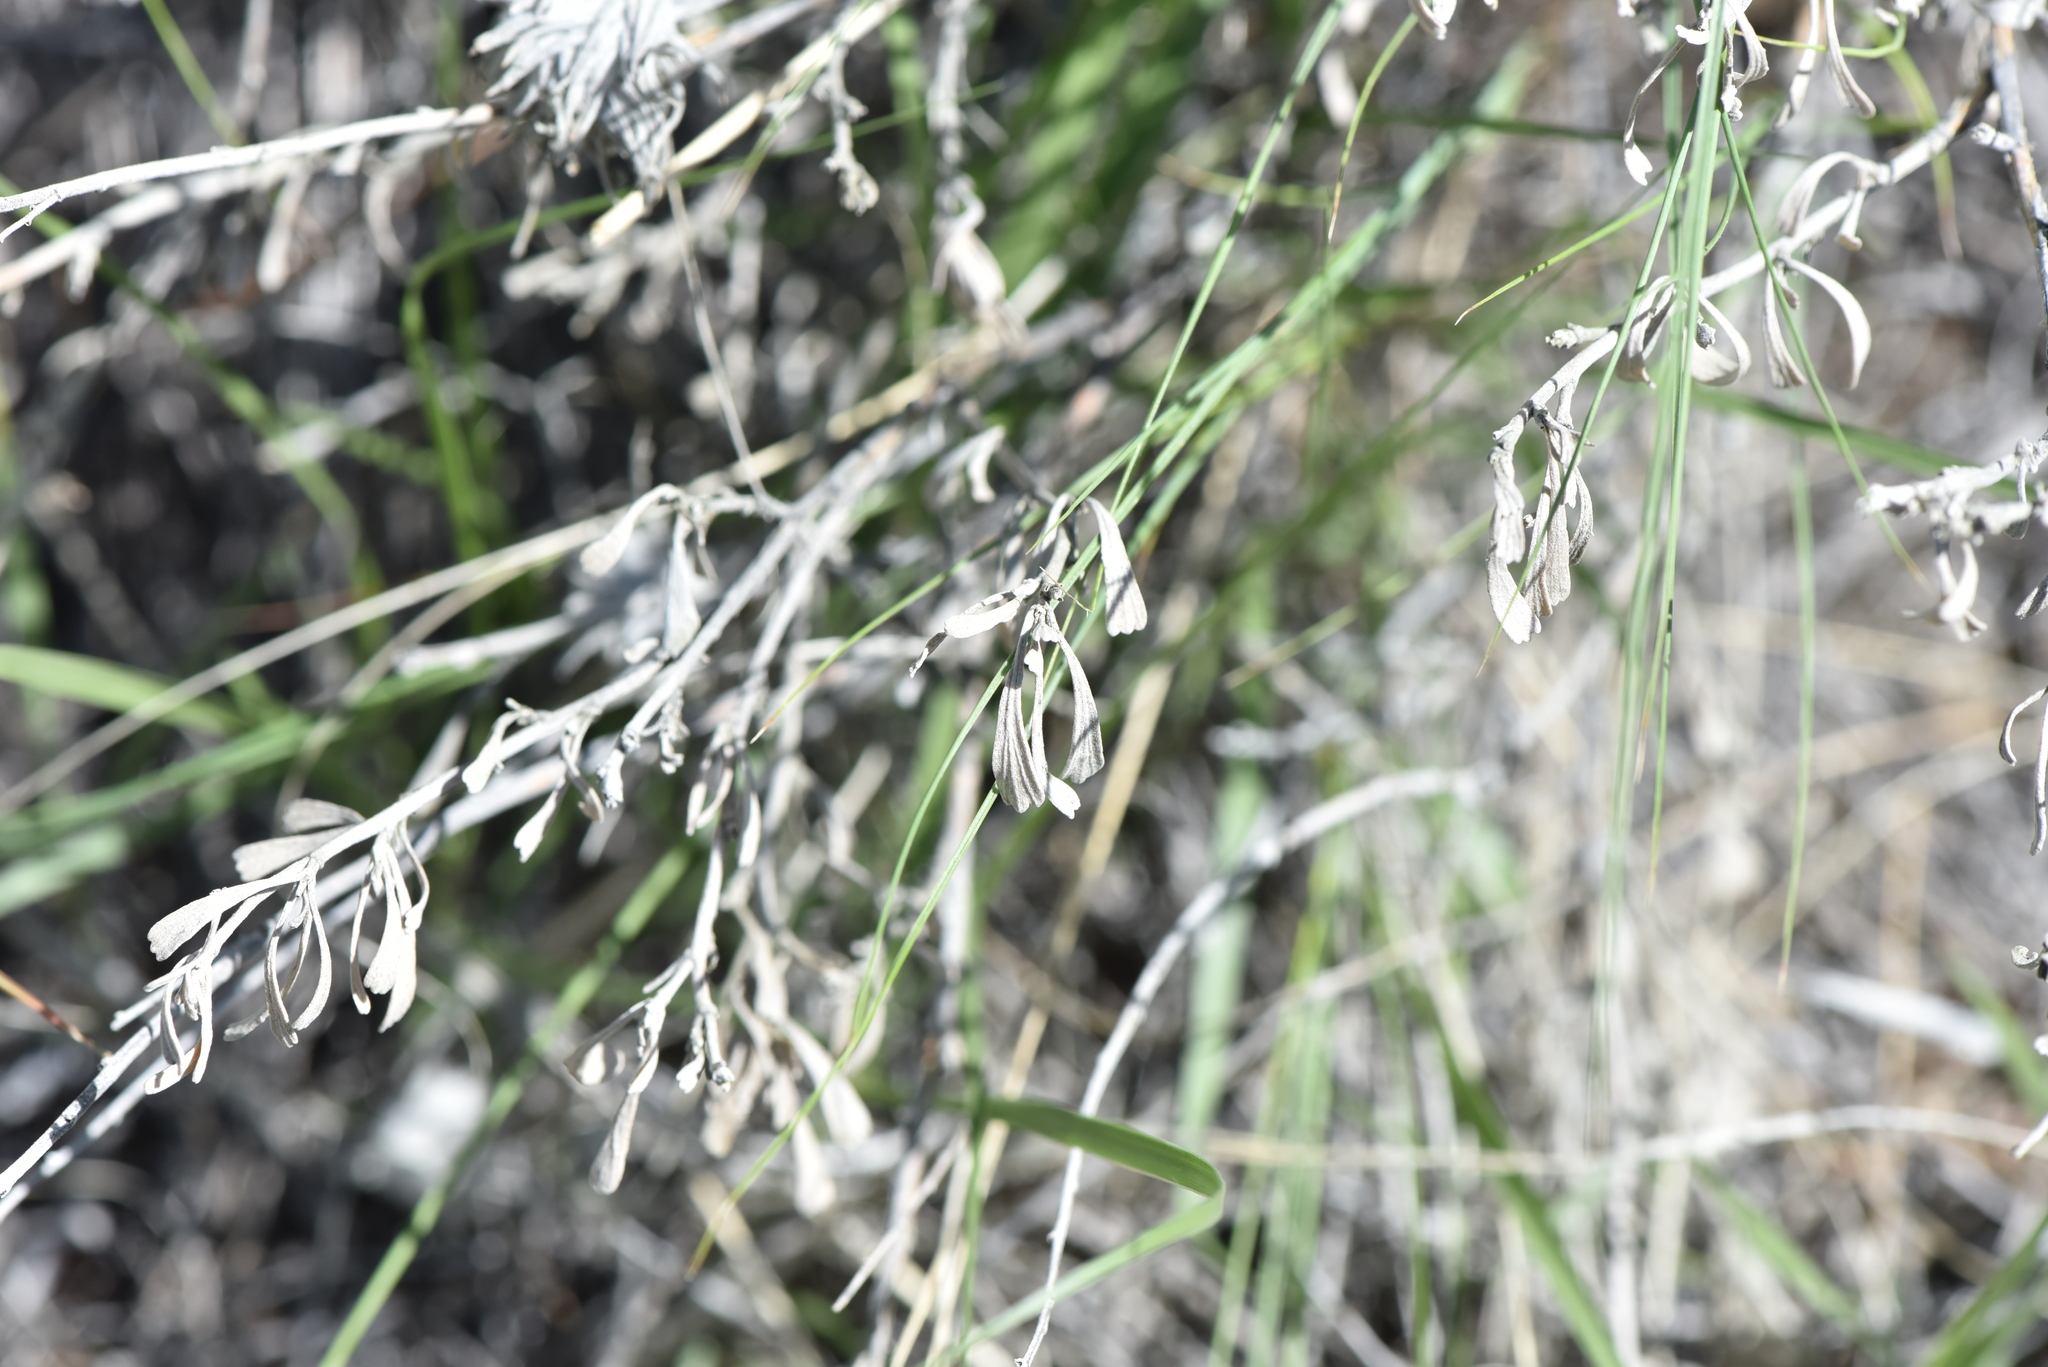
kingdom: Plantae
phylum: Tracheophyta
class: Magnoliopsida
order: Asterales
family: Asteraceae
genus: Artemisia
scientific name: Artemisia tridentata
